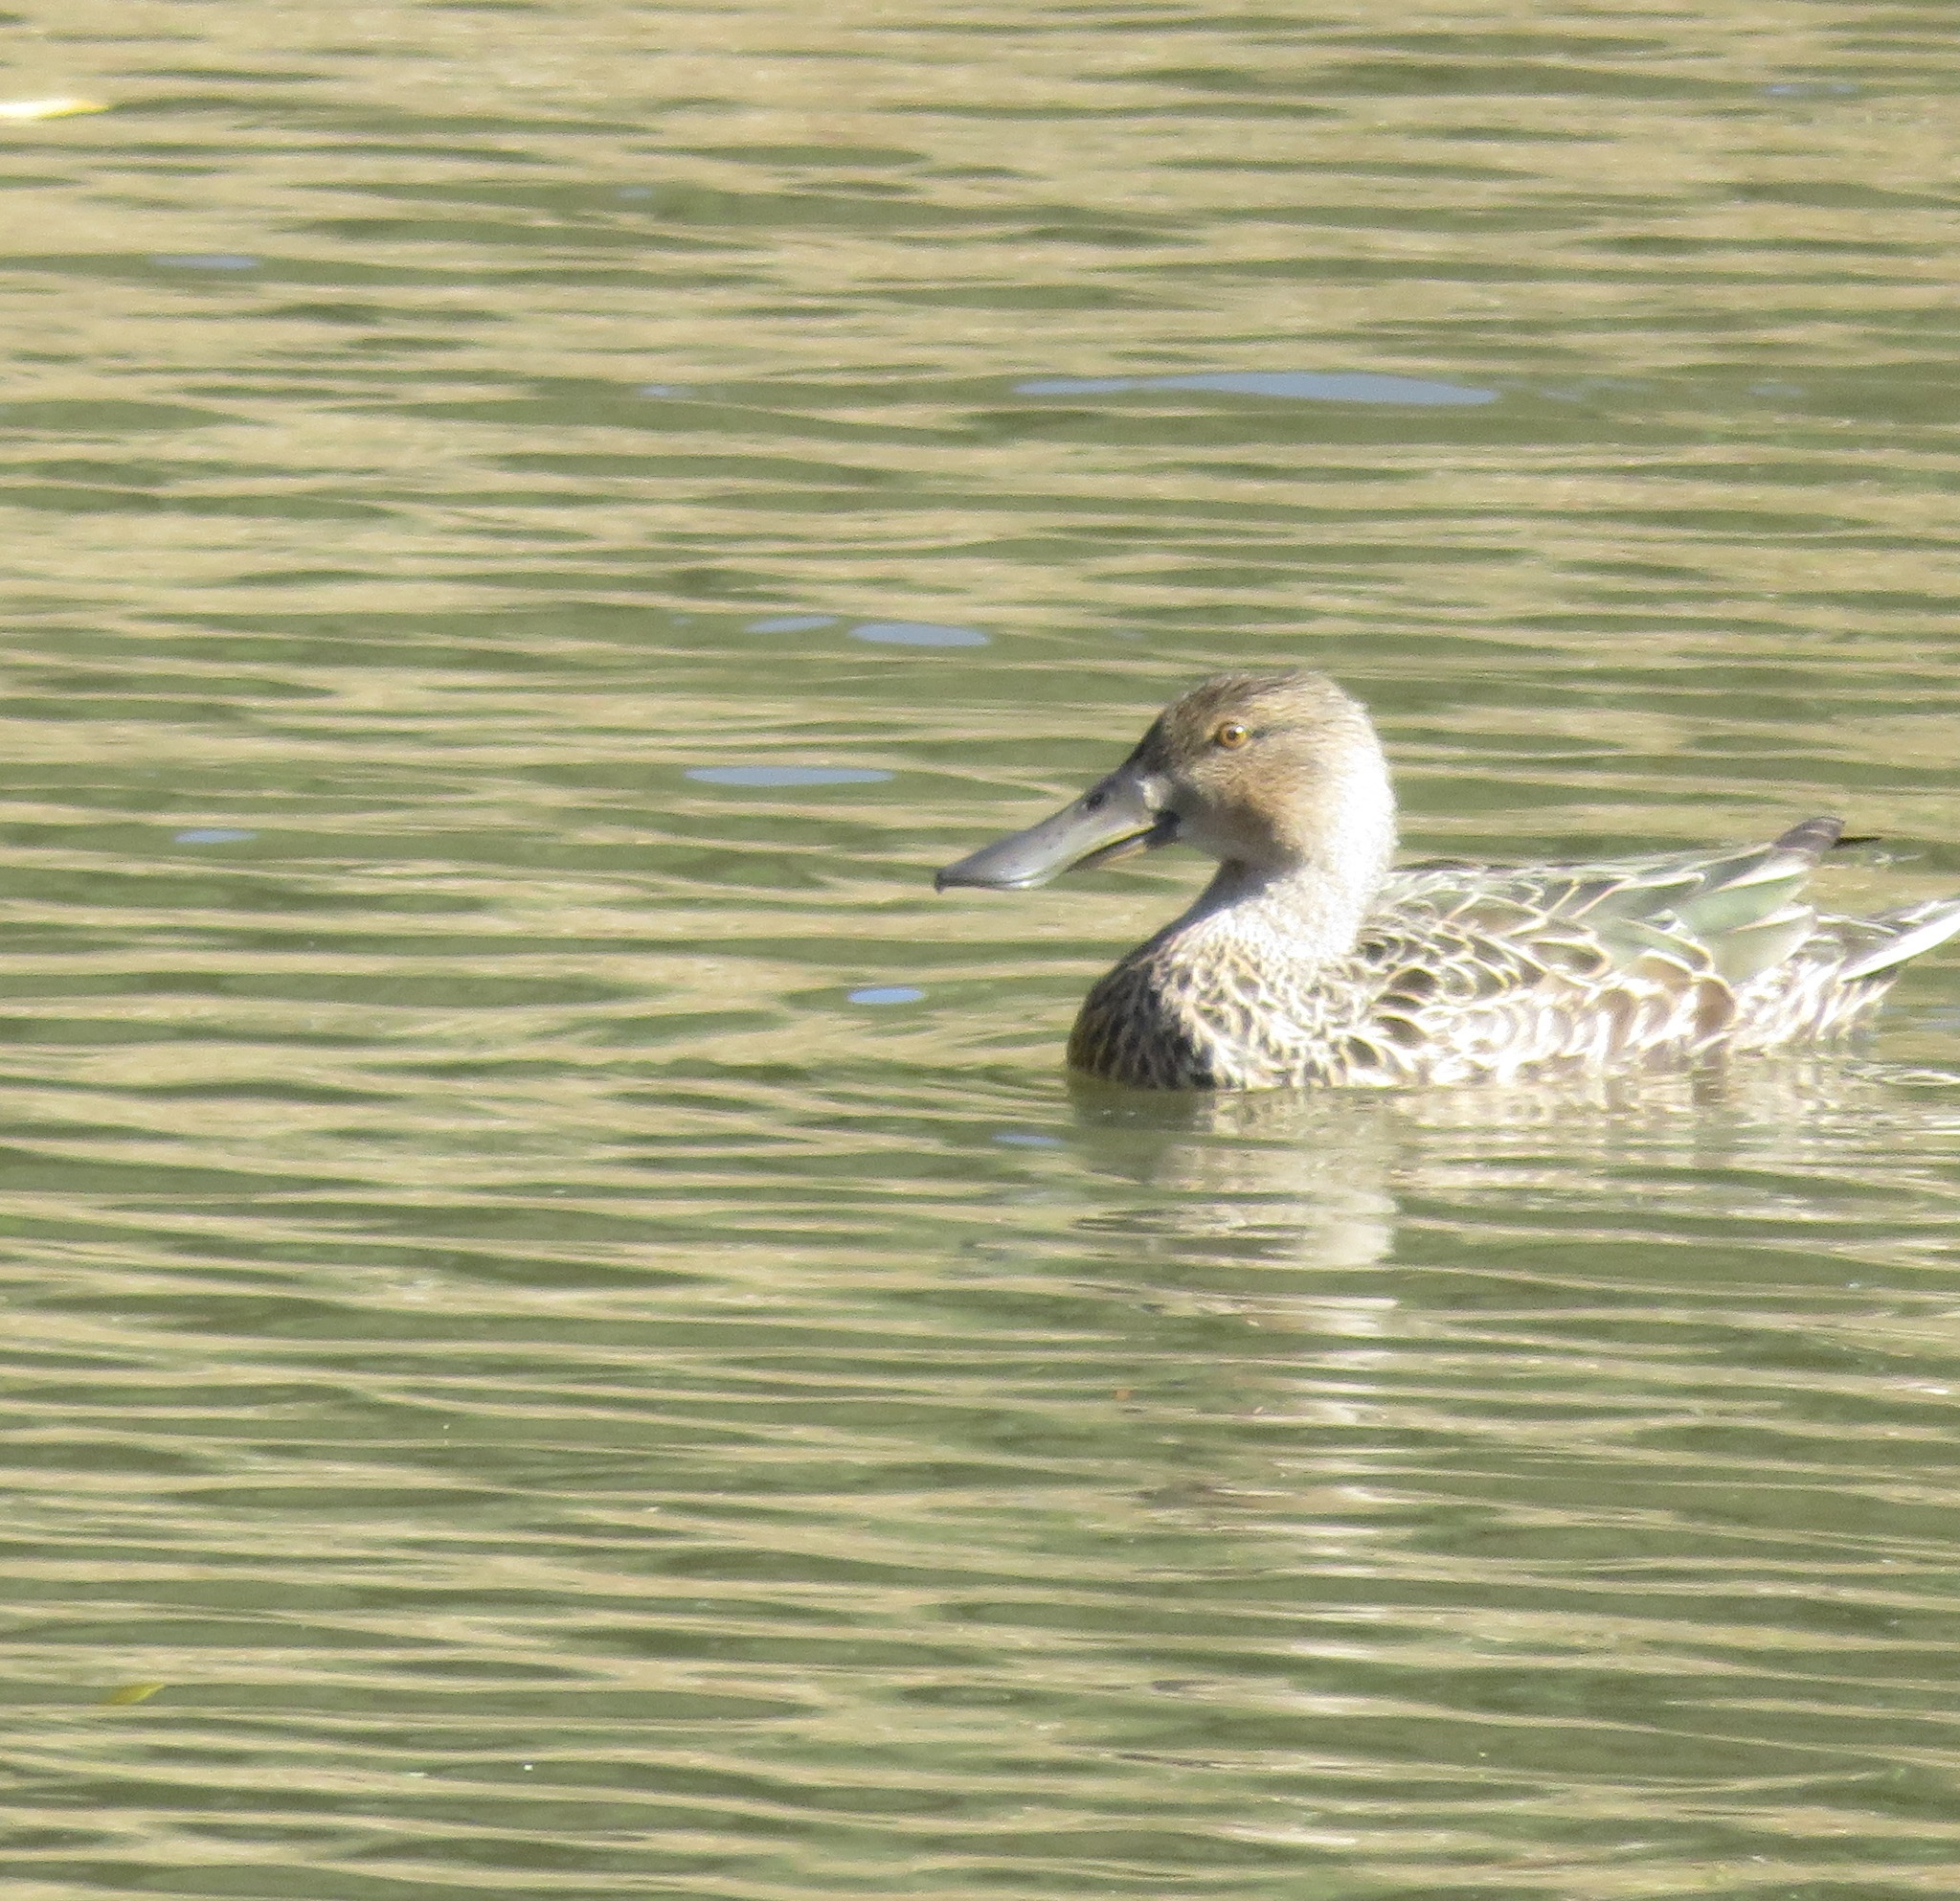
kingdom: Animalia
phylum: Chordata
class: Aves
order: Anseriformes
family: Anatidae
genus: Spatula
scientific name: Spatula rhynchotis
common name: Australian shoveler
